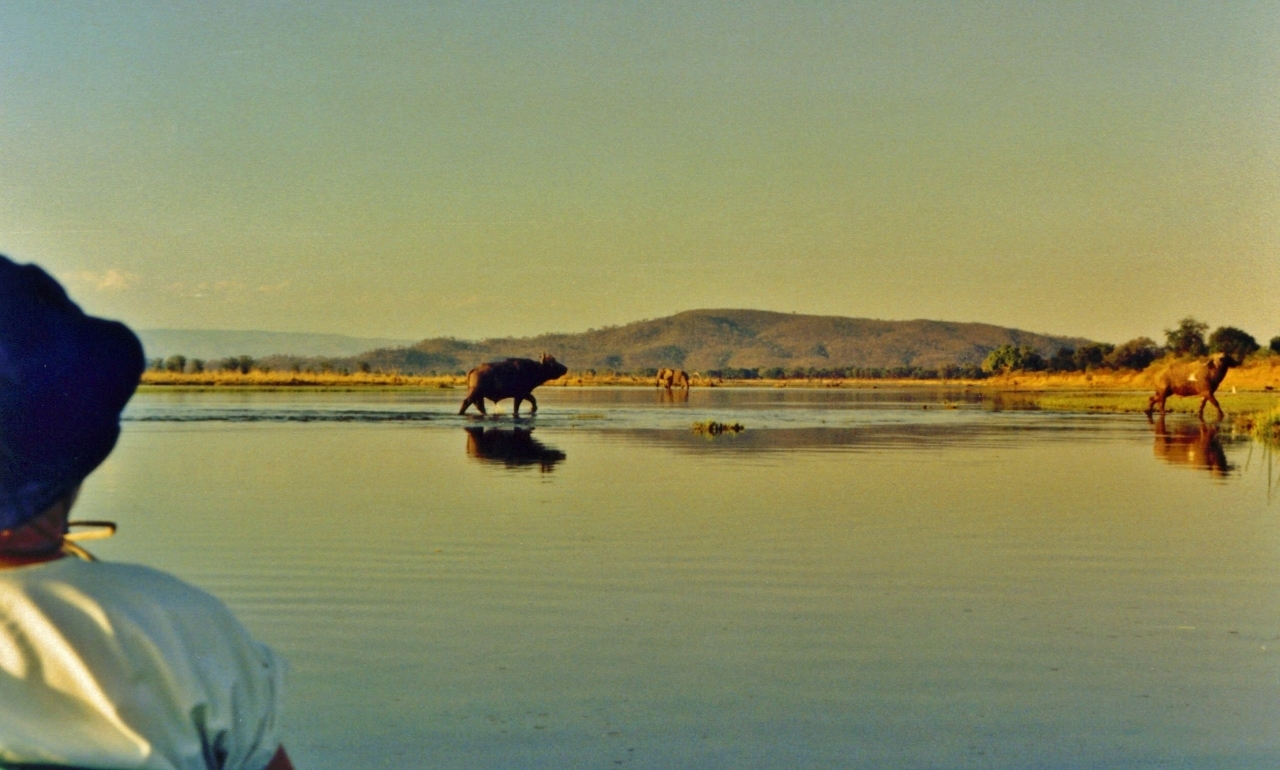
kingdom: Animalia
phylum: Chordata
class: Mammalia
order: Artiodactyla
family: Bovidae
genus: Syncerus
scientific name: Syncerus caffer
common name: African buffalo
